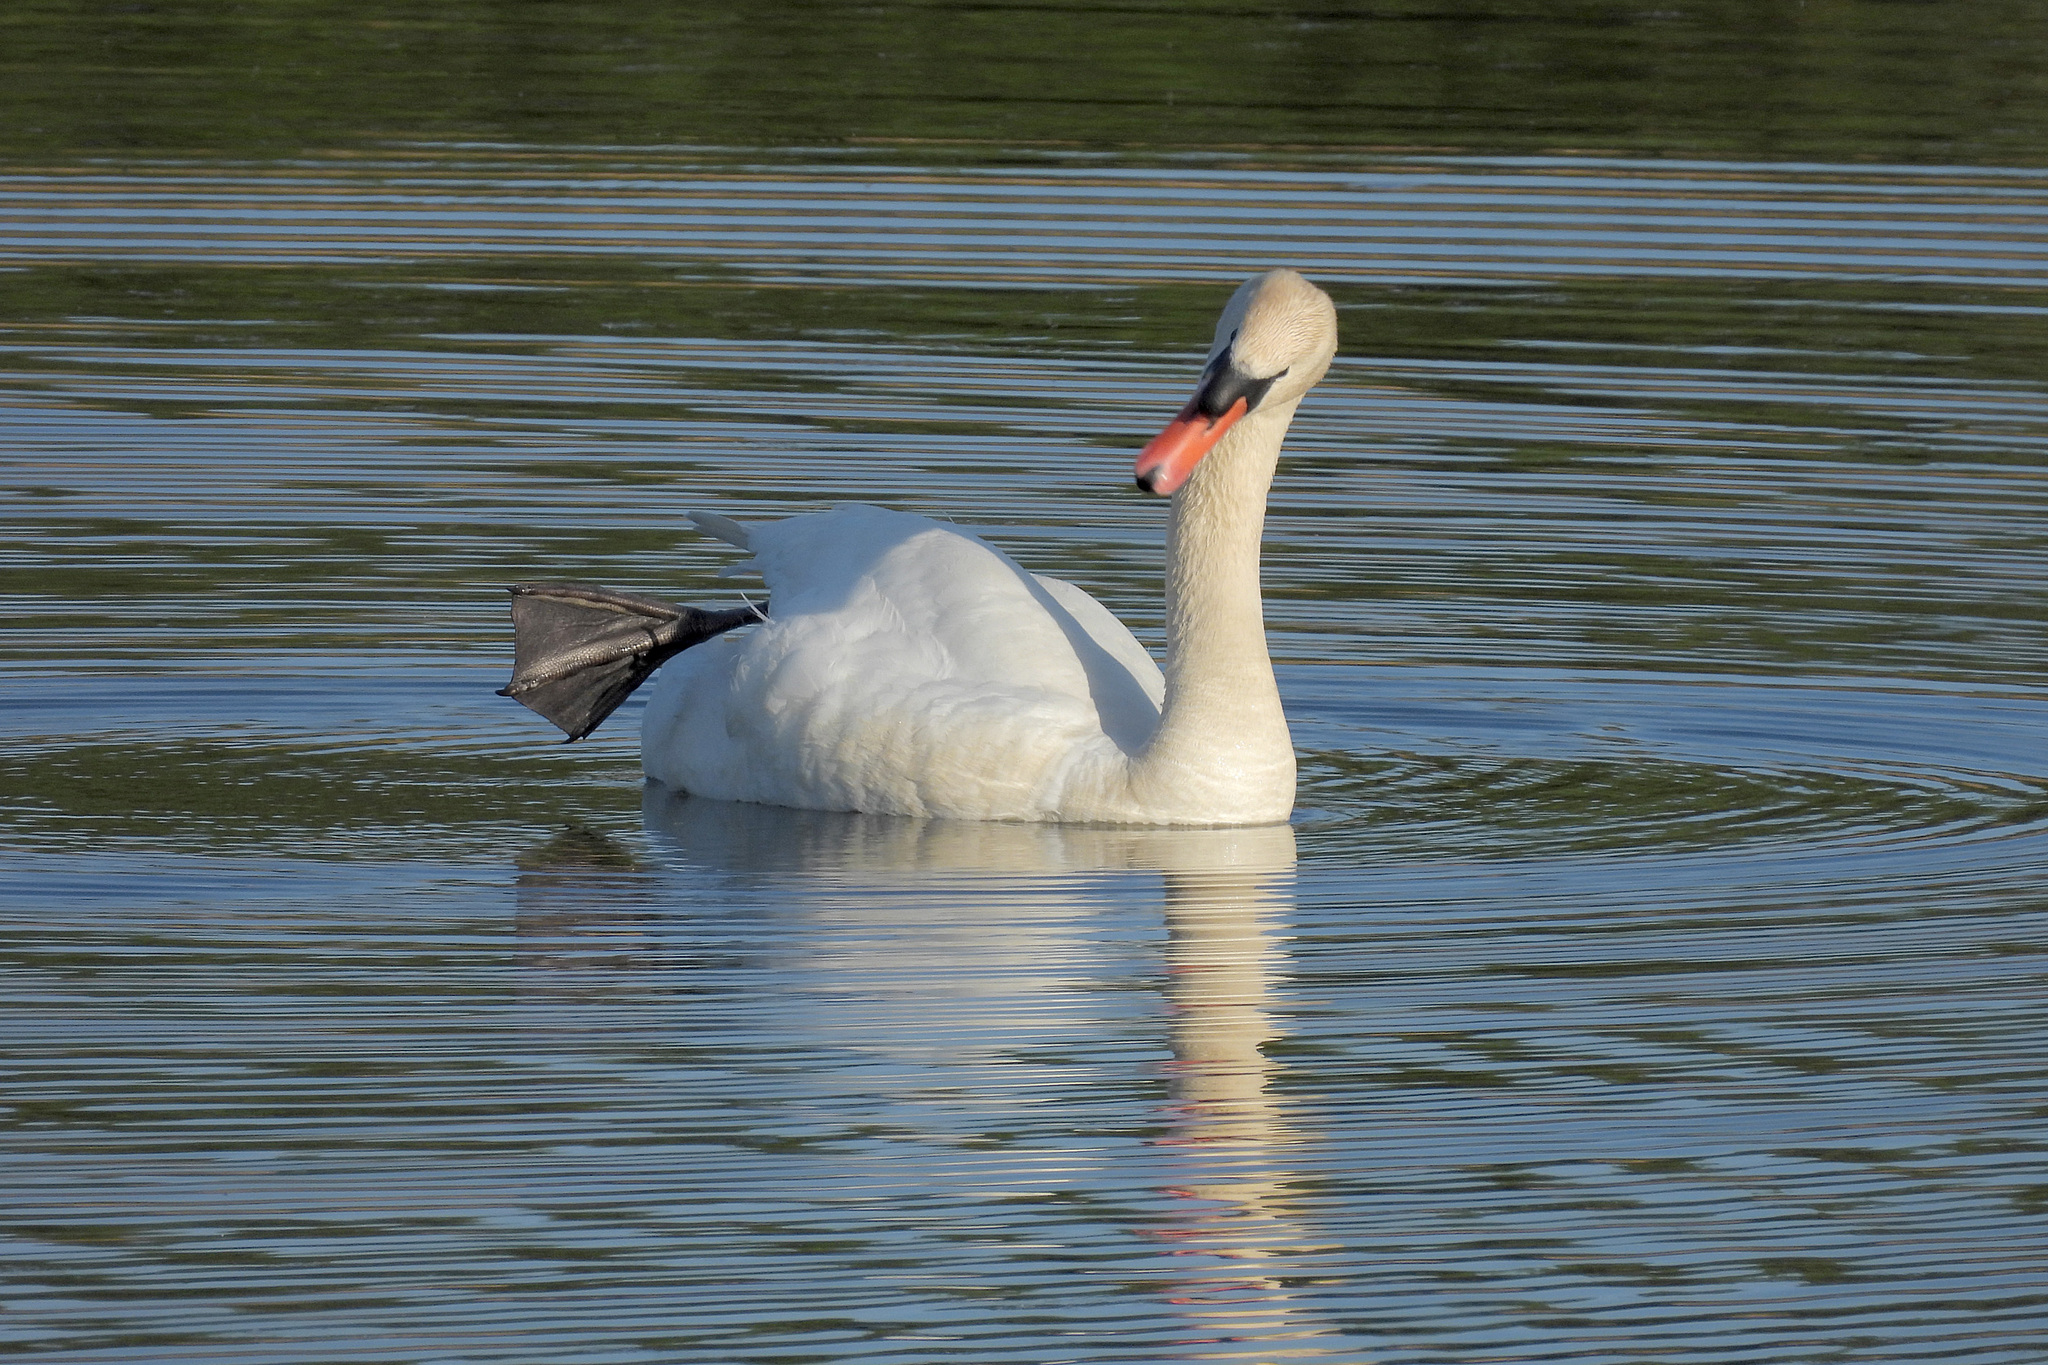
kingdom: Animalia
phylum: Chordata
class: Aves
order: Anseriformes
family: Anatidae
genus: Cygnus
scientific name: Cygnus olor
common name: Mute swan
